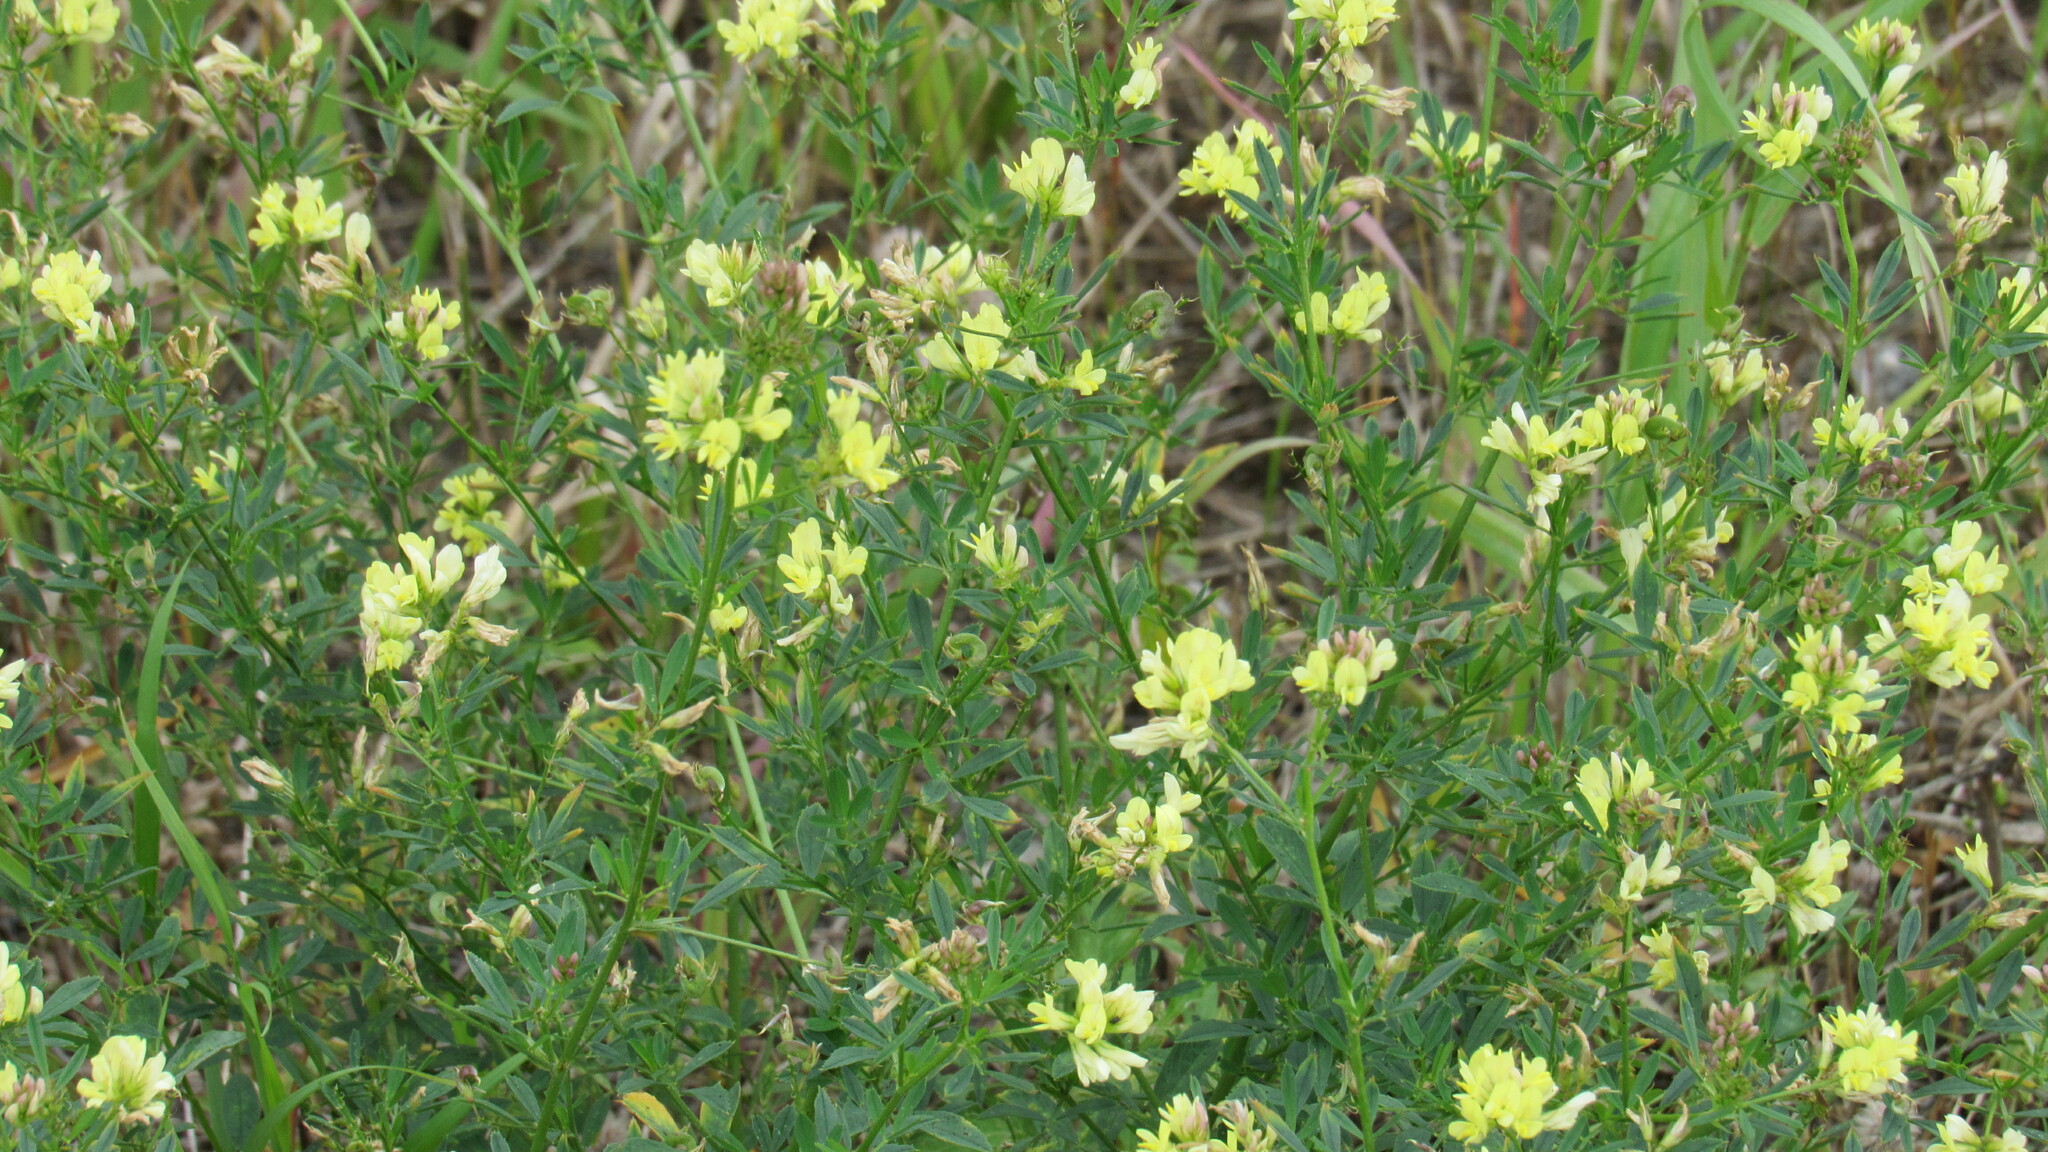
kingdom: Plantae
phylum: Tracheophyta
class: Magnoliopsida
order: Fabales
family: Fabaceae
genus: Medicago
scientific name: Medicago varia
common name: Sand lucerne
